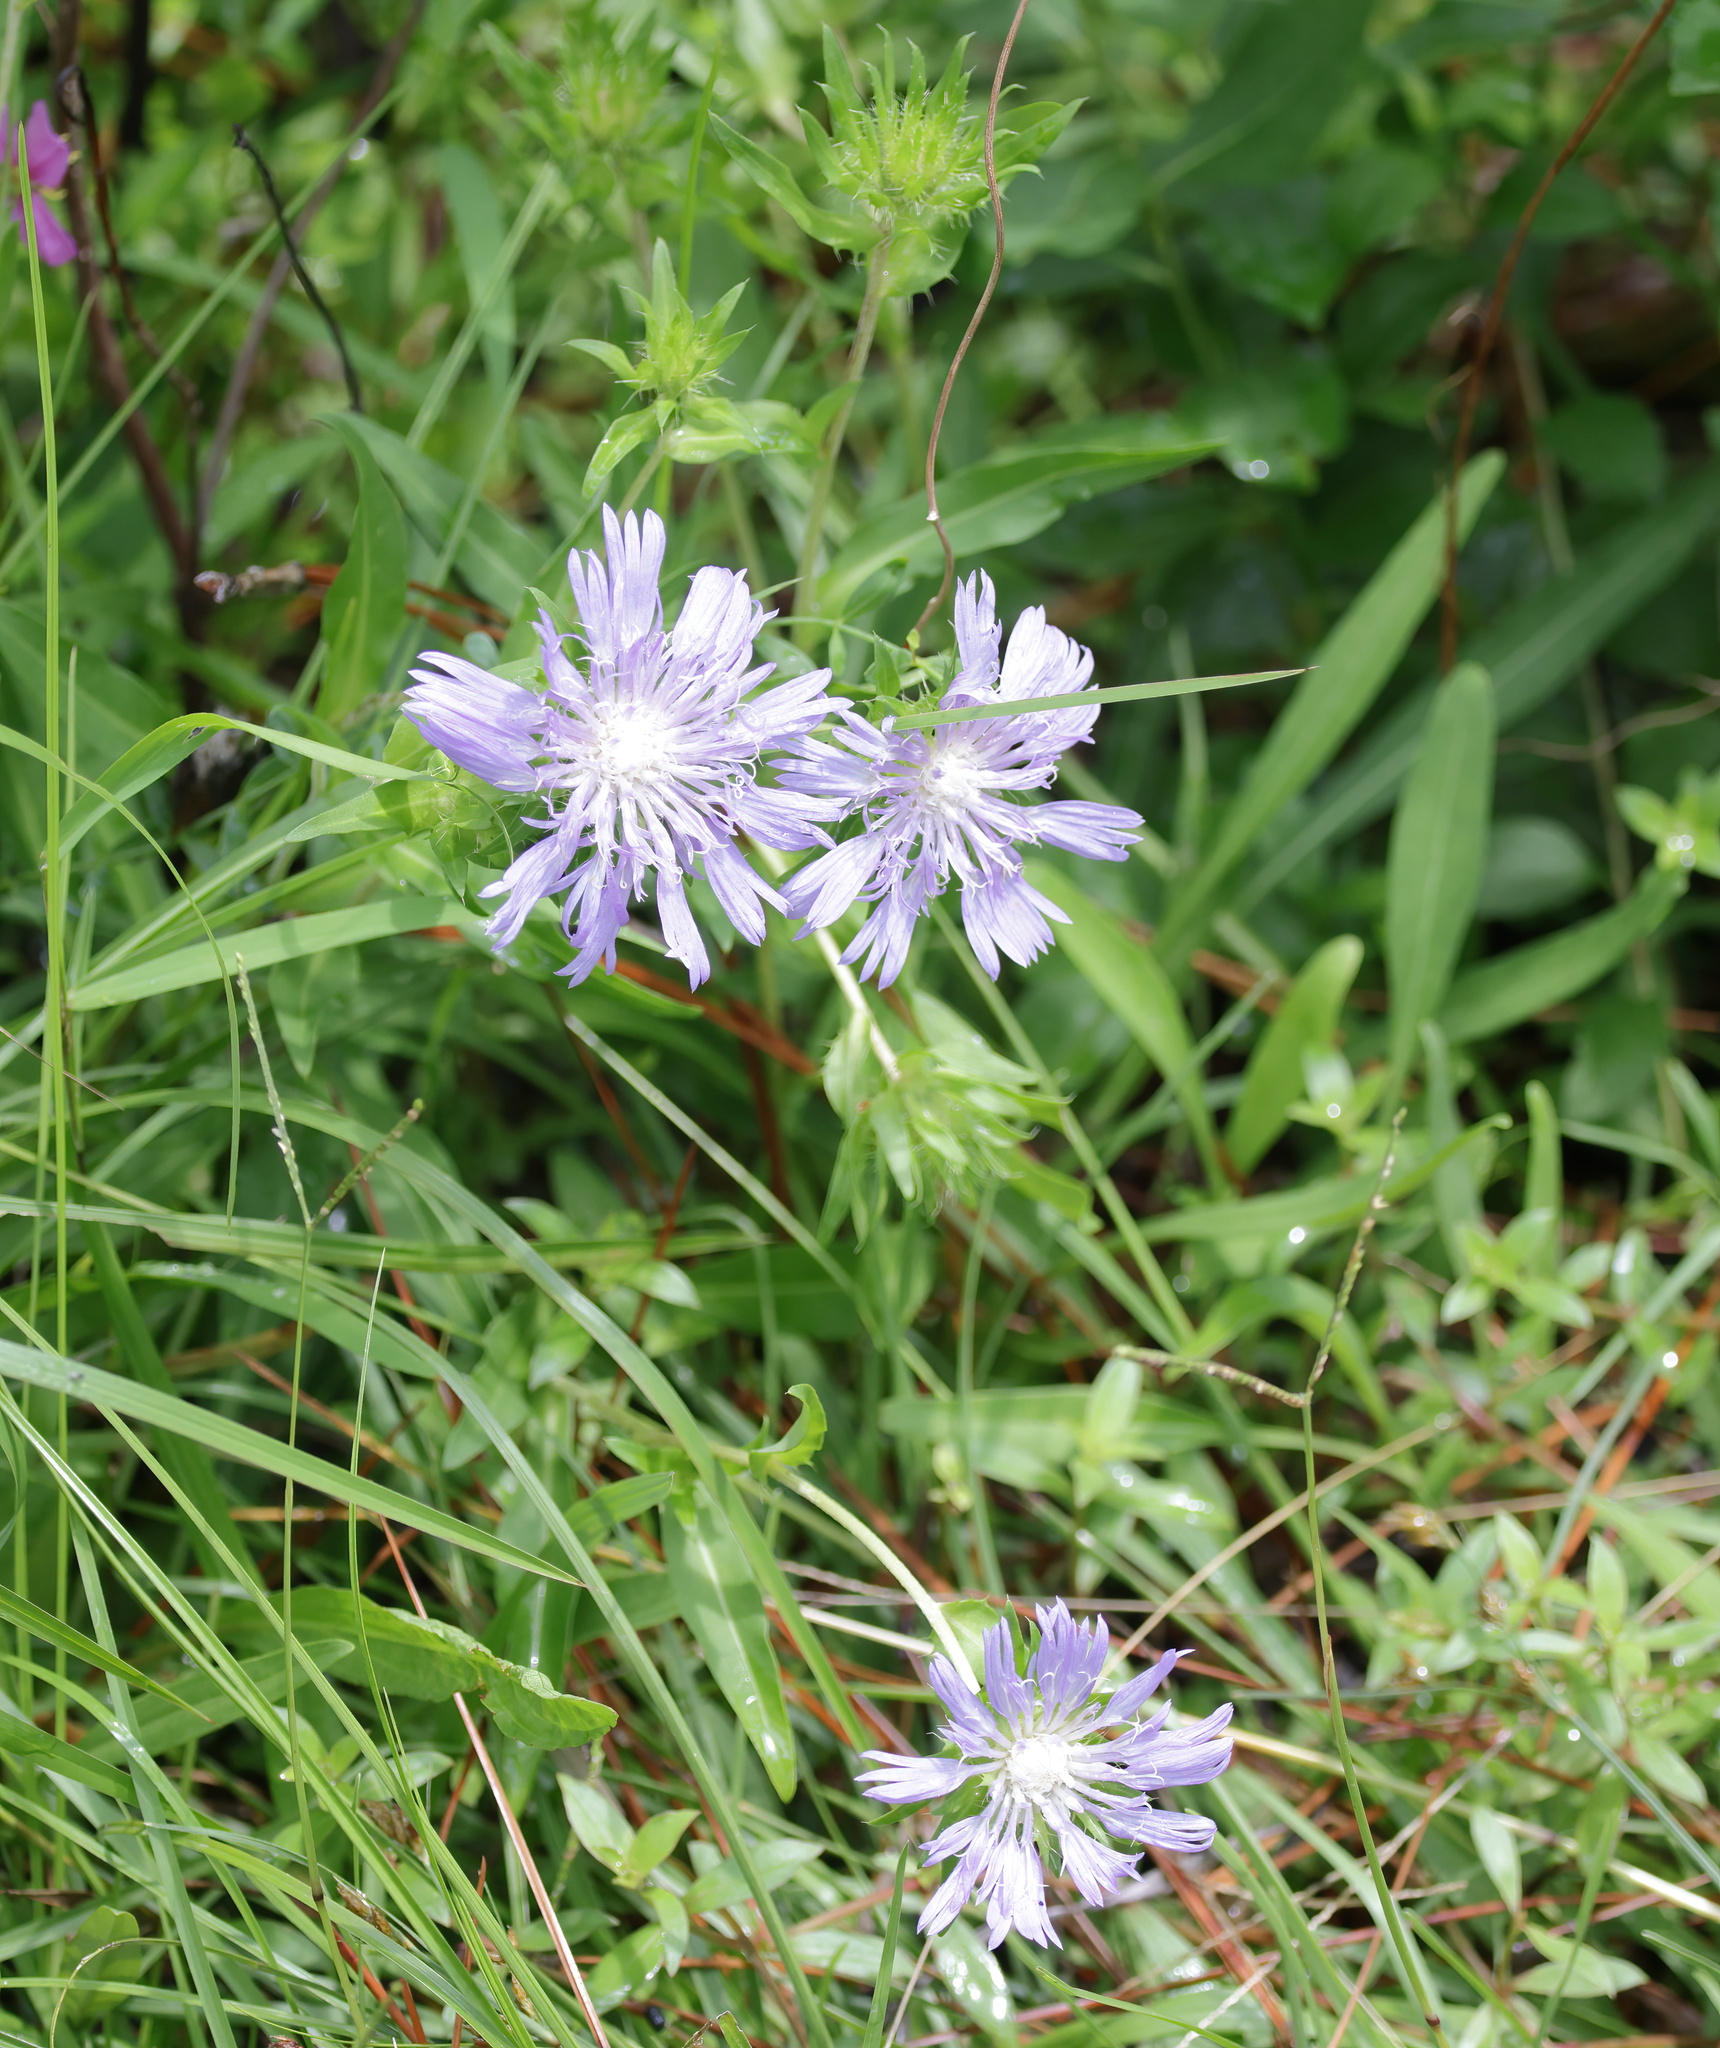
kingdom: Plantae
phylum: Tracheophyta
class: Magnoliopsida
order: Asterales
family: Asteraceae
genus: Stokesia
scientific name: Stokesia laevis
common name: Stokes'-aster
